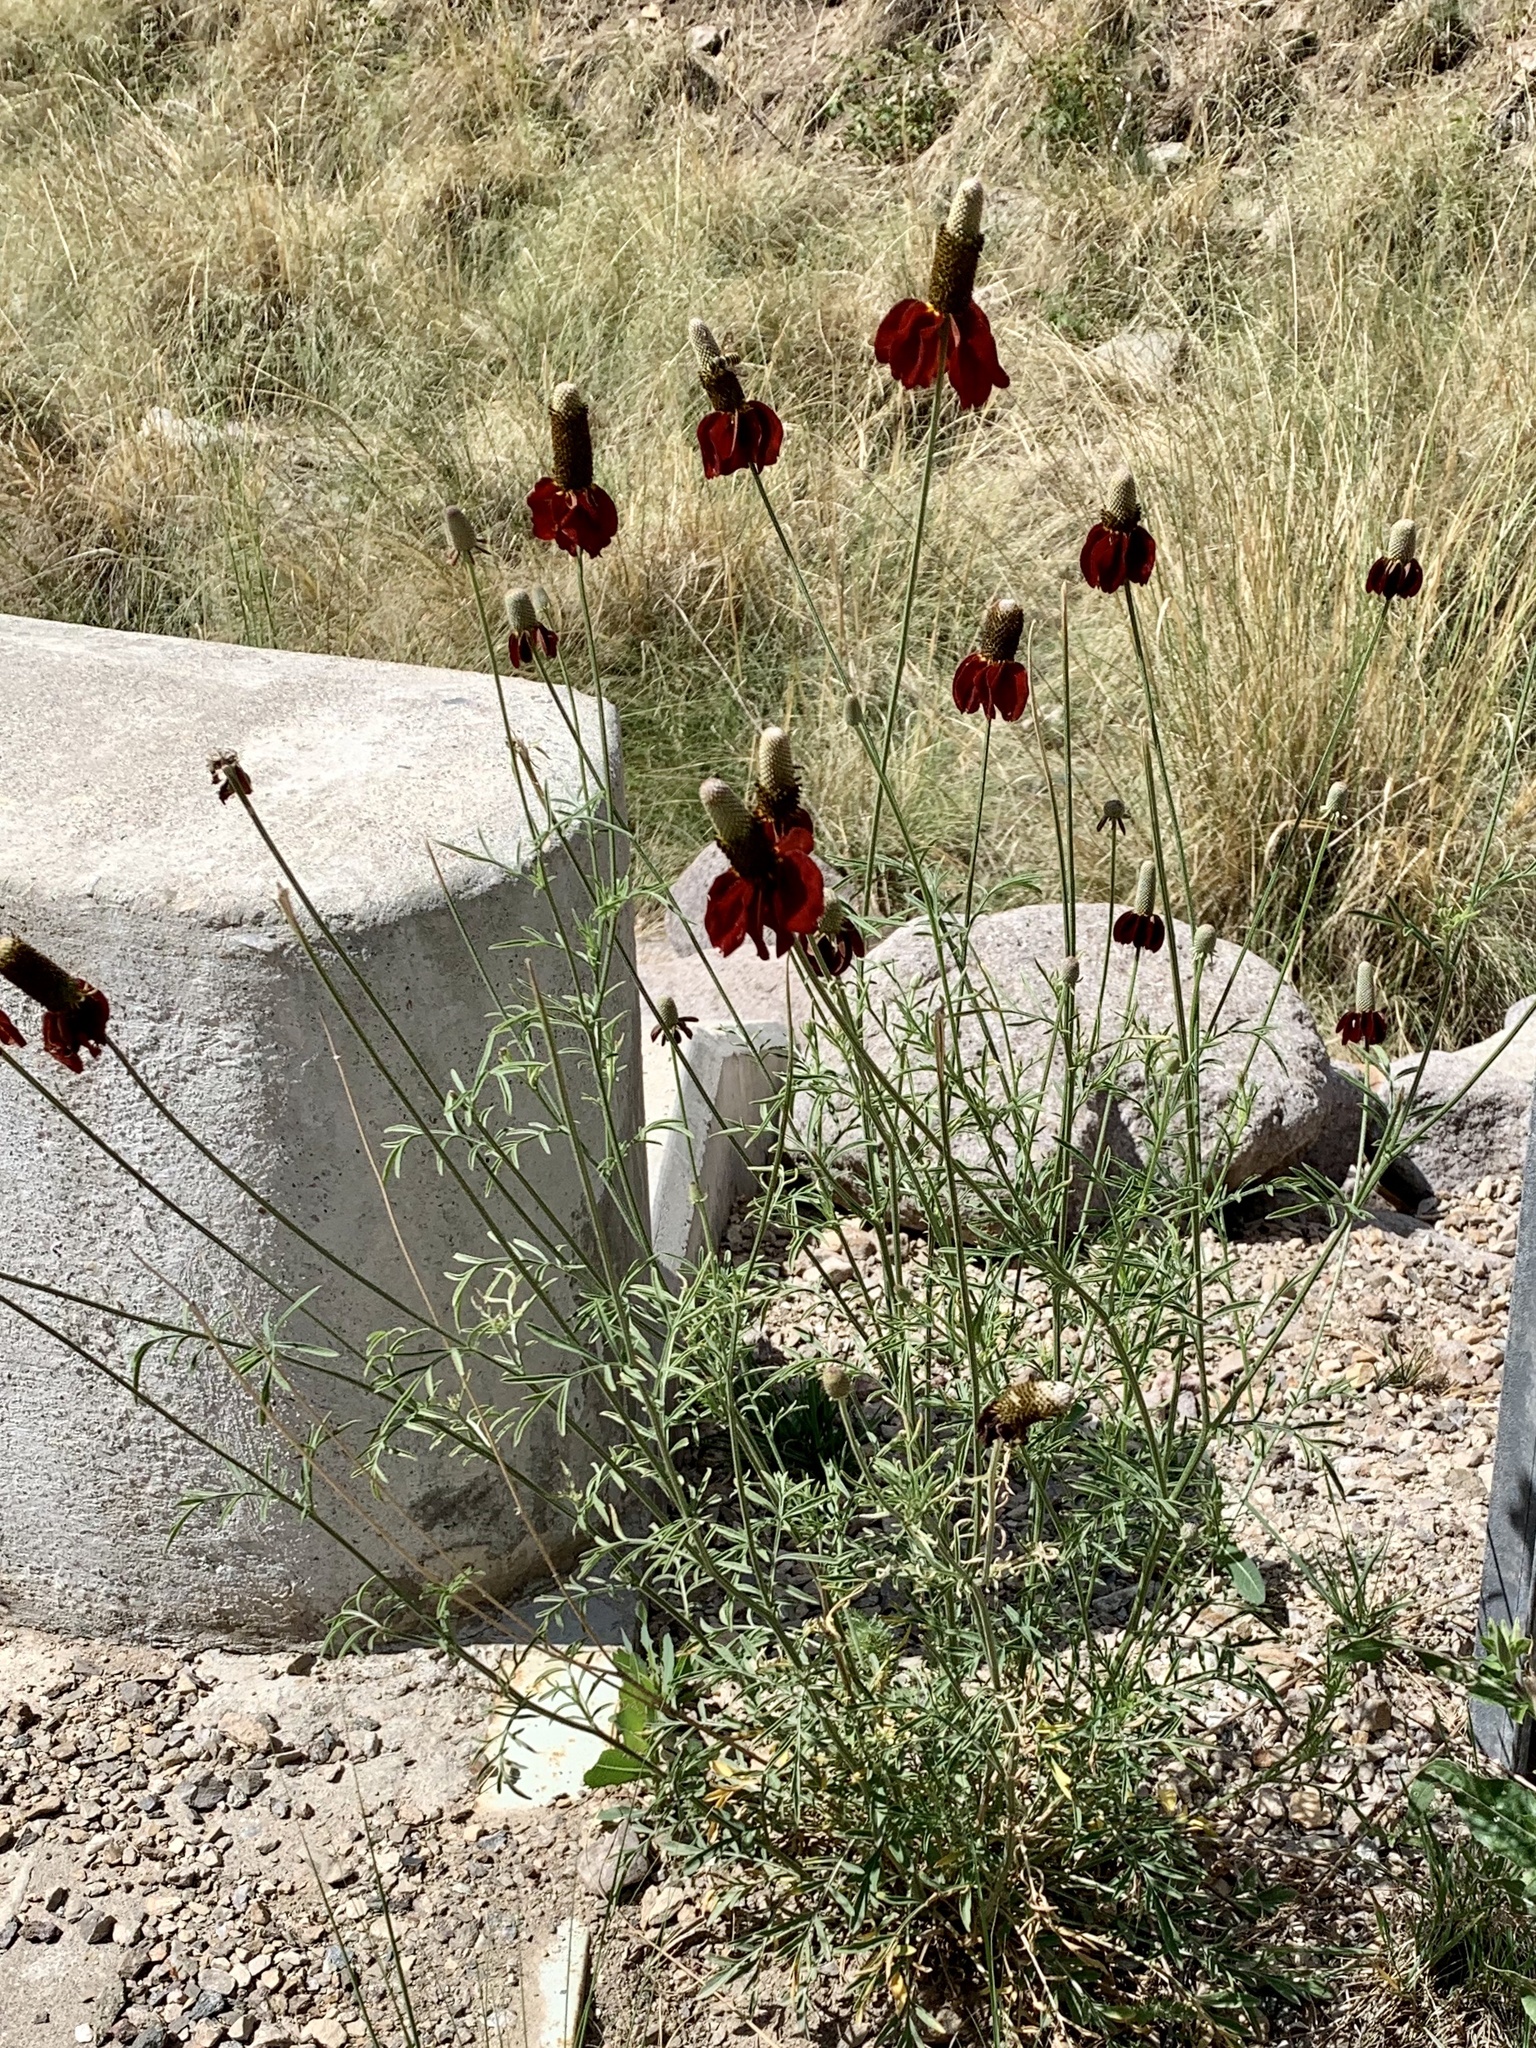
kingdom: Plantae
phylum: Tracheophyta
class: Magnoliopsida
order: Asterales
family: Asteraceae
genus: Ratibida
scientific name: Ratibida columnifera
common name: Prairie coneflower
